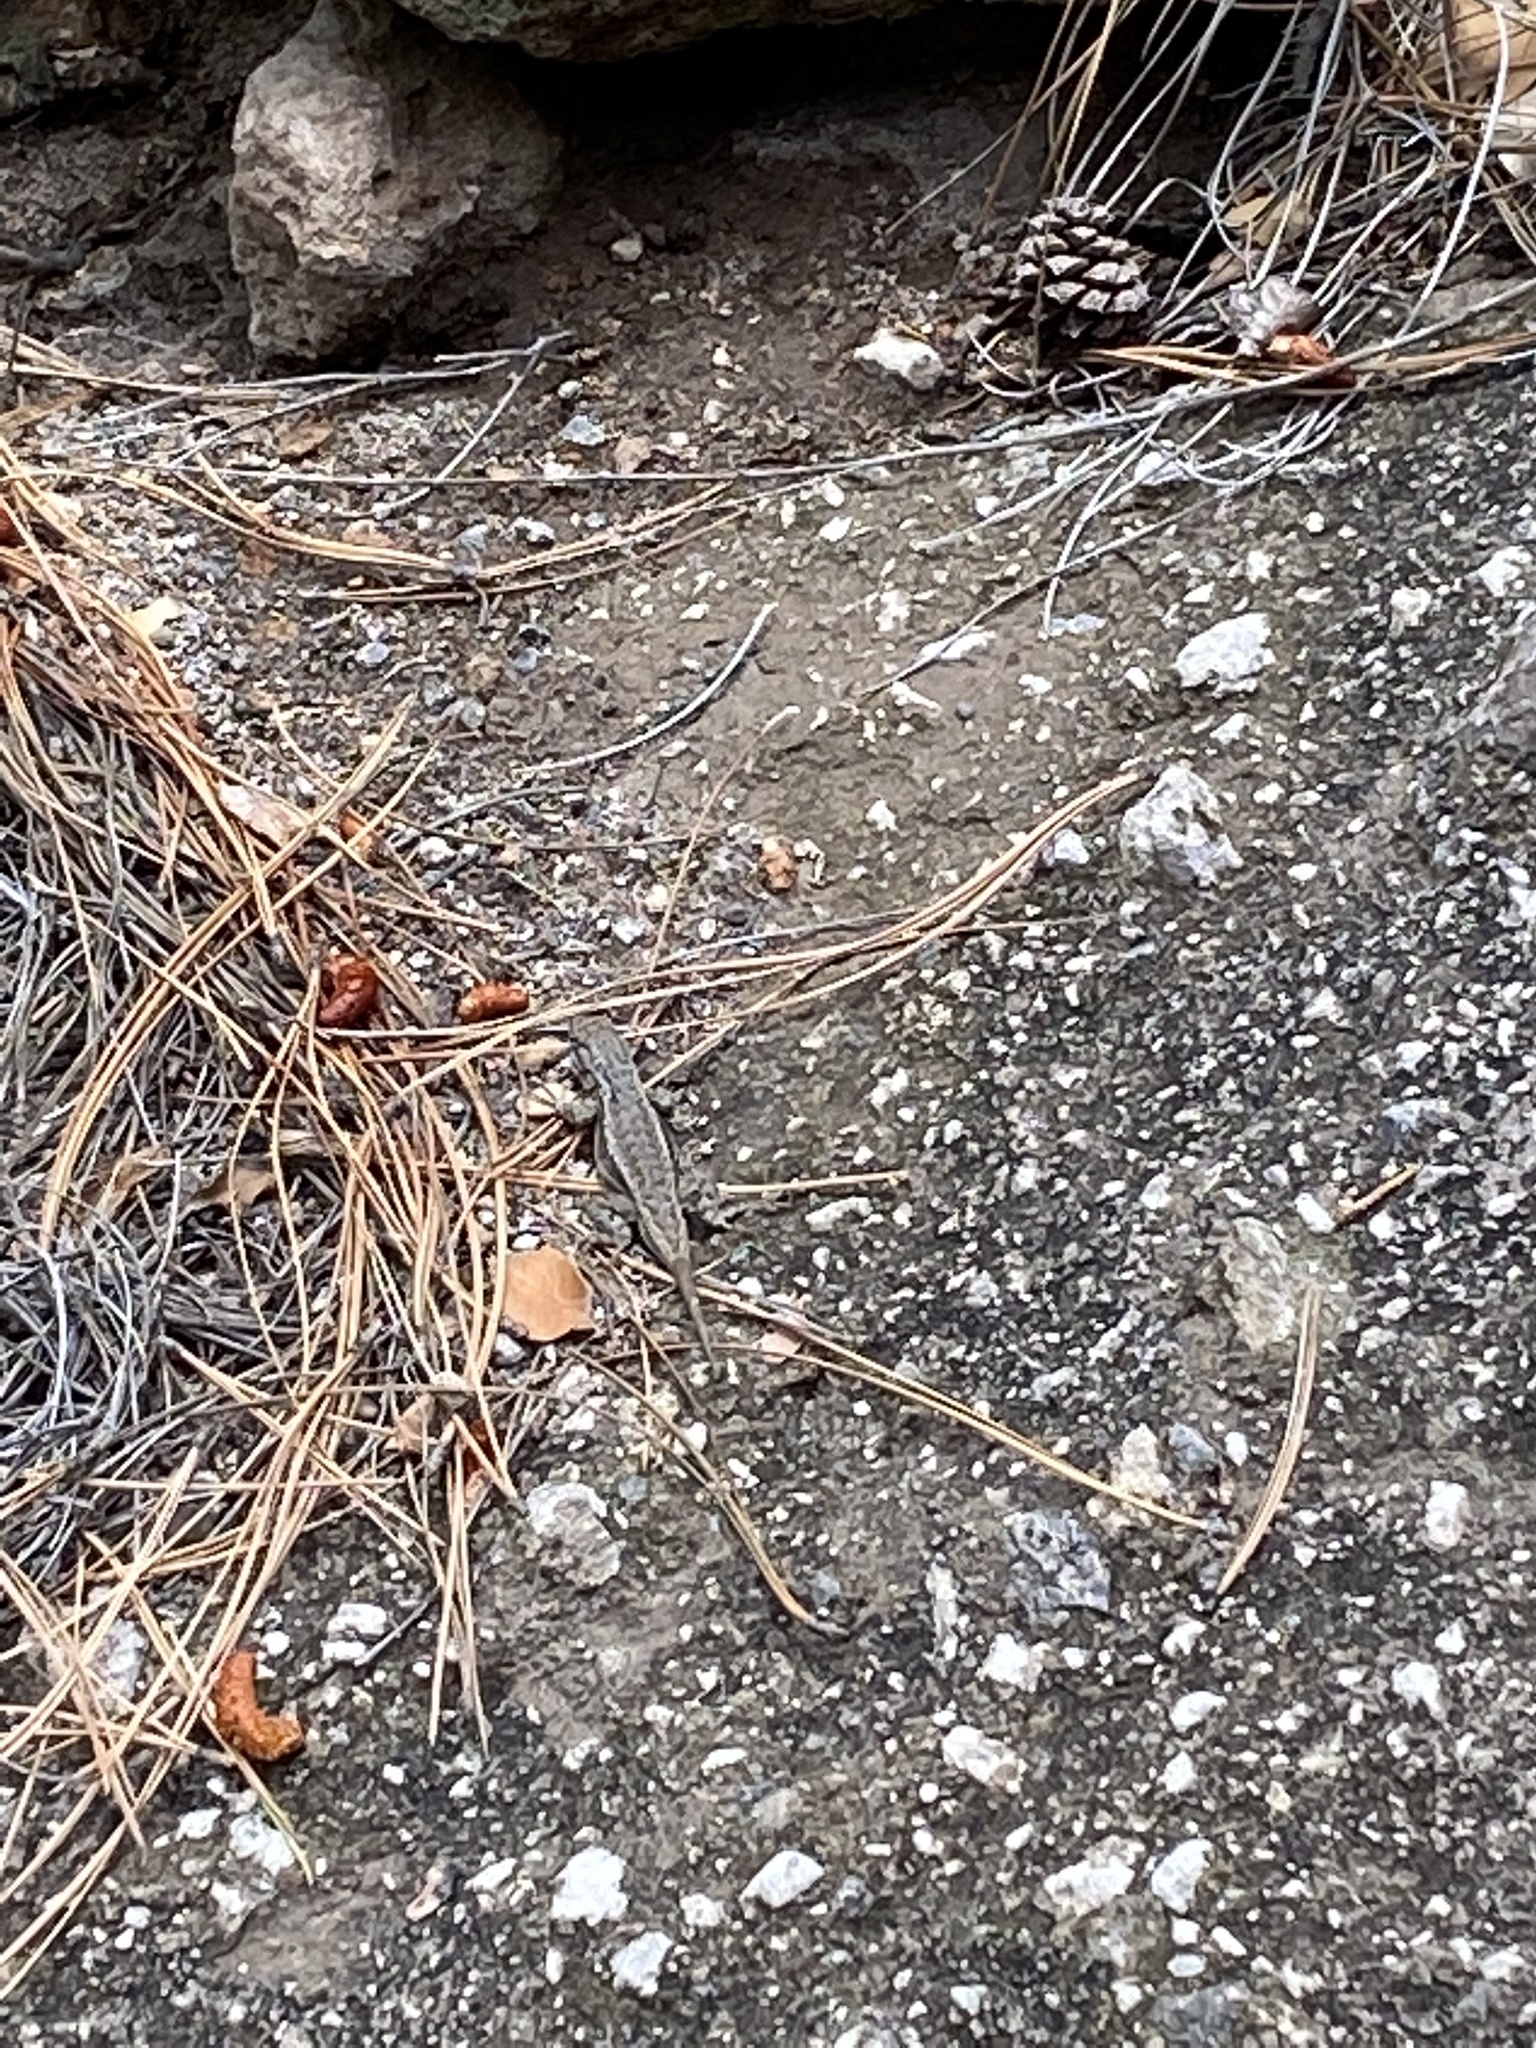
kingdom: Animalia
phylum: Chordata
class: Squamata
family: Phrynosomatidae
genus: Sceloporus
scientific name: Sceloporus
